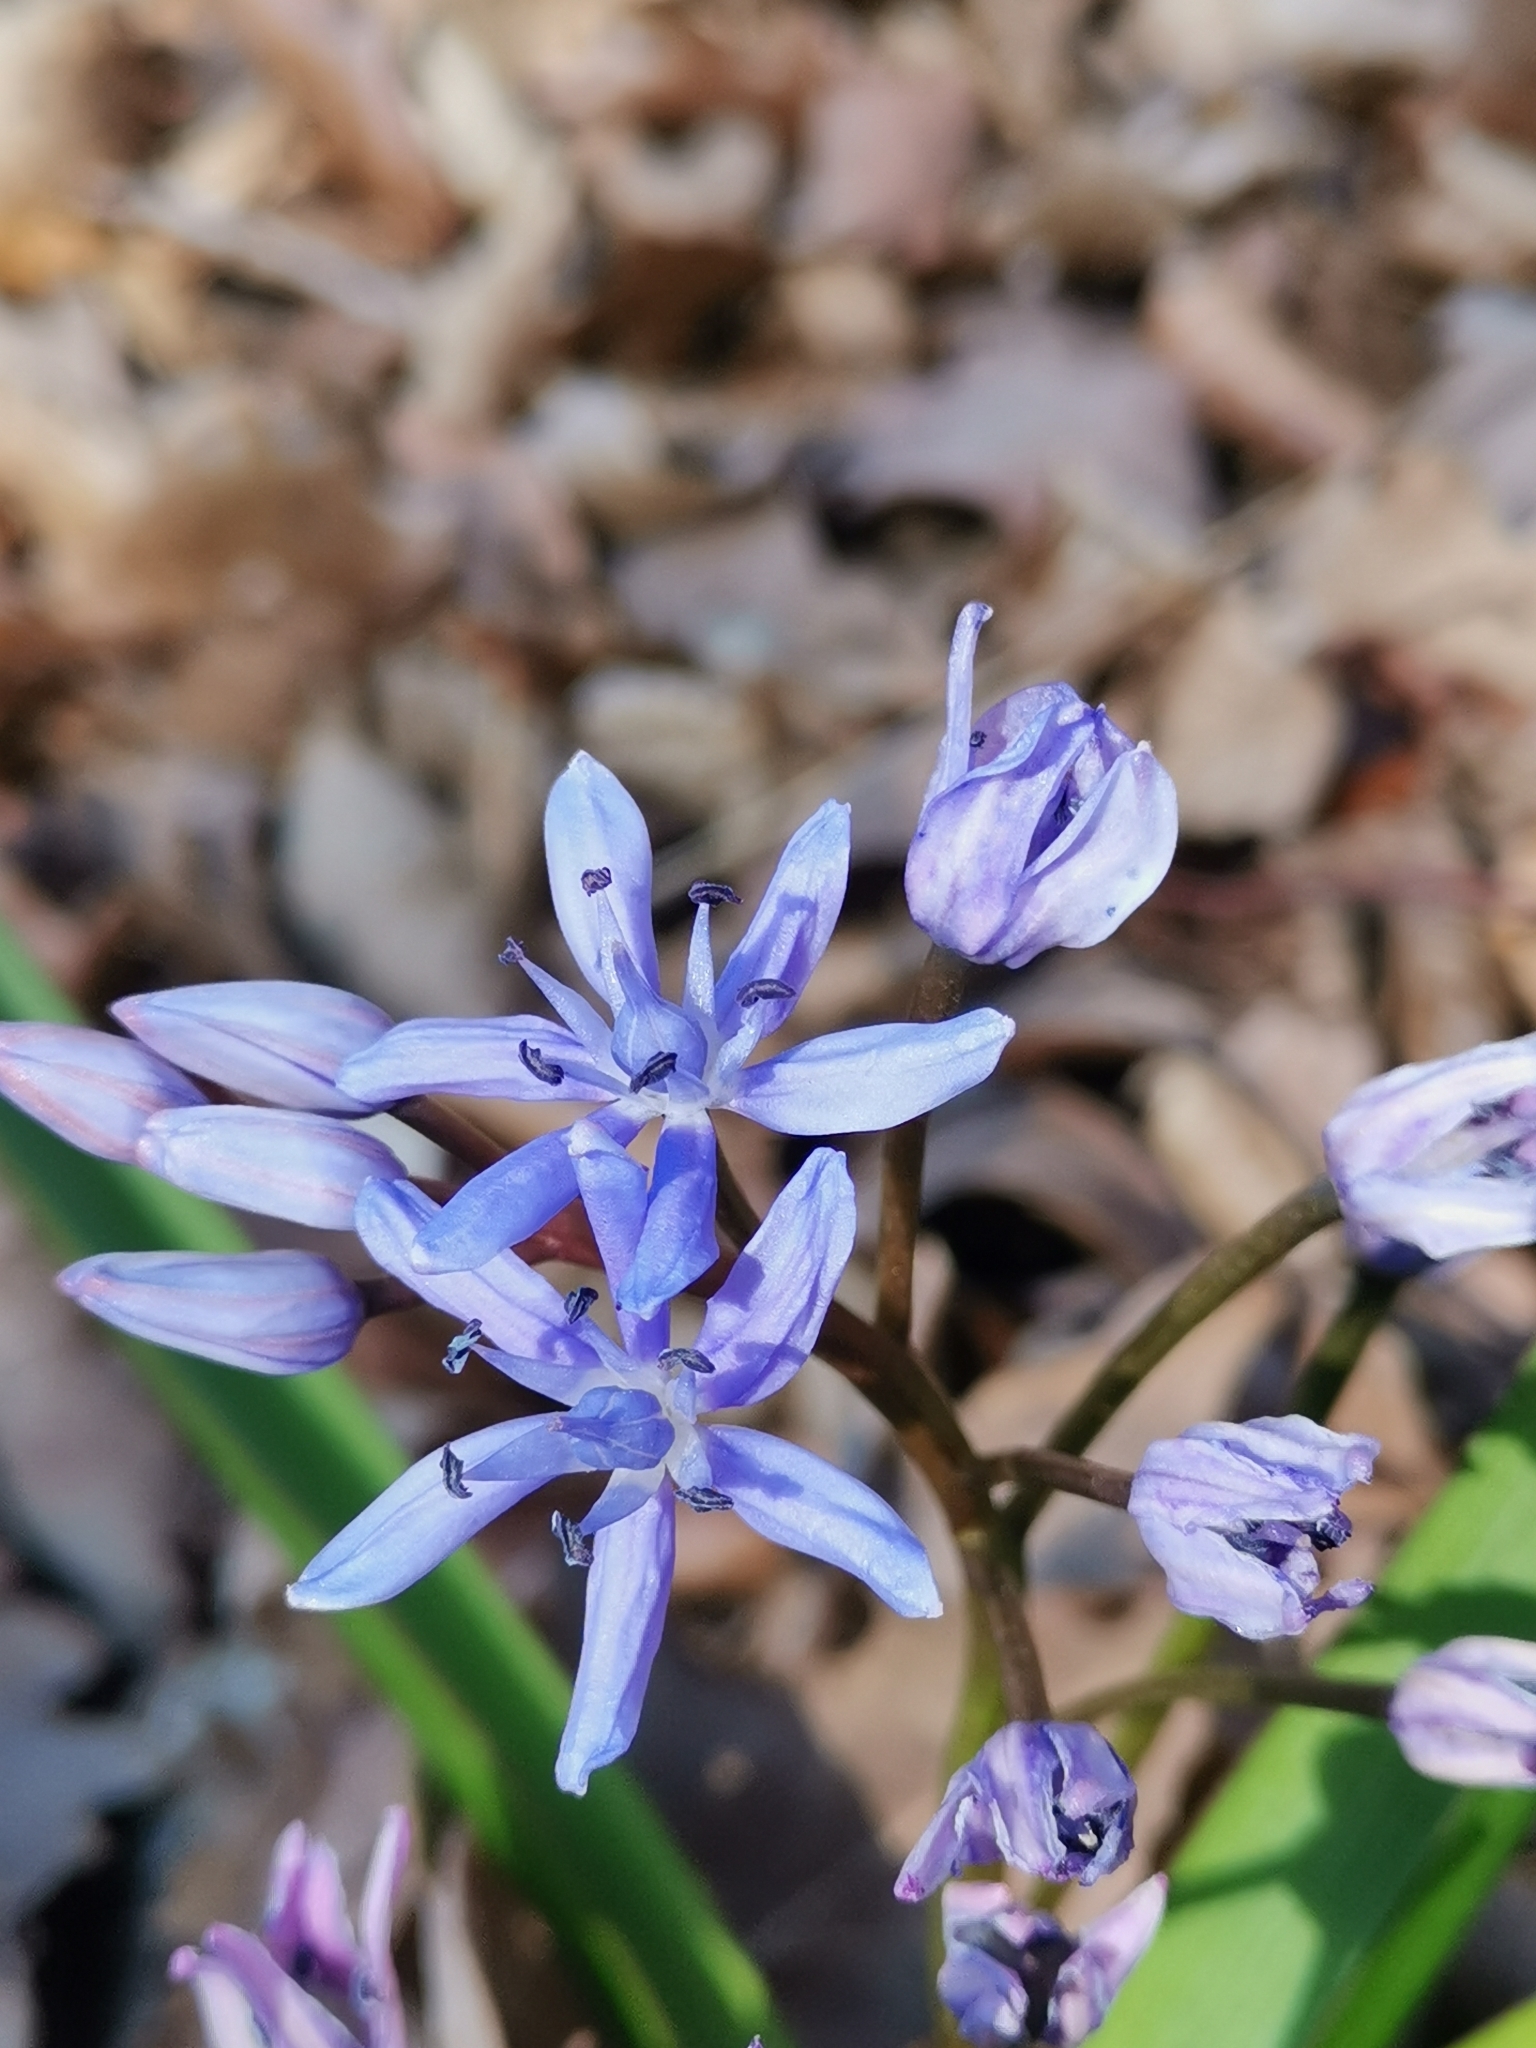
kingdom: Plantae
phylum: Tracheophyta
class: Liliopsida
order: Asparagales
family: Asparagaceae
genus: Scilla
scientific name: Scilla bifolia
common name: Alpine squill
